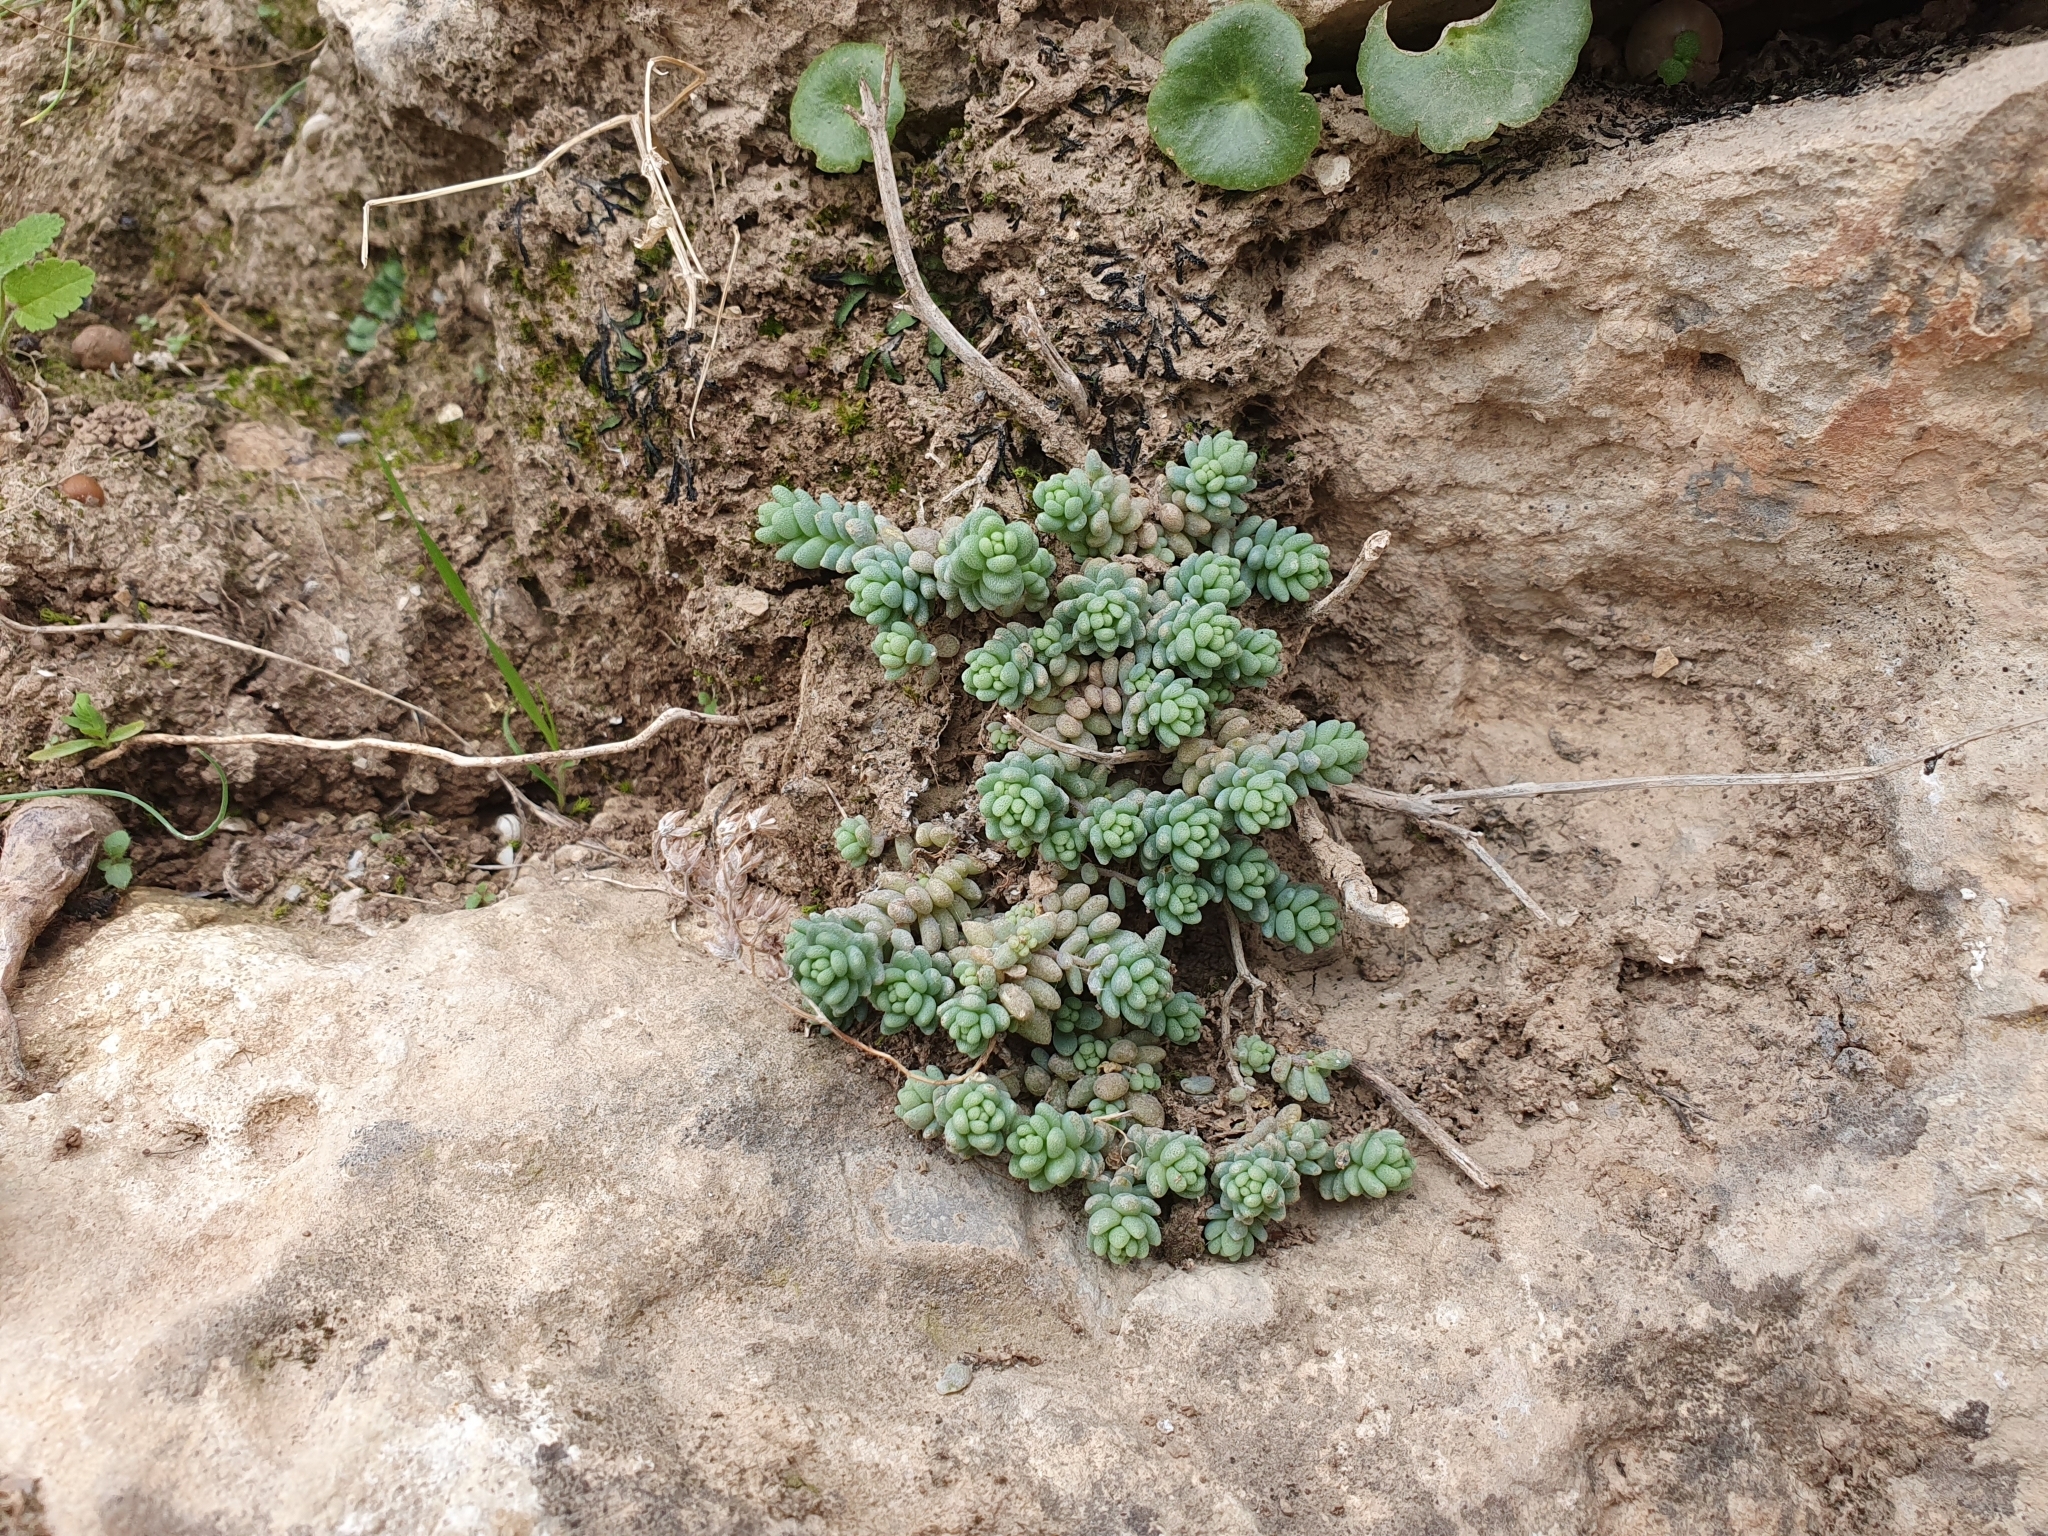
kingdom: Plantae
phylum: Tracheophyta
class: Magnoliopsida
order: Saxifragales
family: Crassulaceae
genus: Sedum
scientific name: Sedum dasyphyllum
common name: Thick-leaf stonecrop
